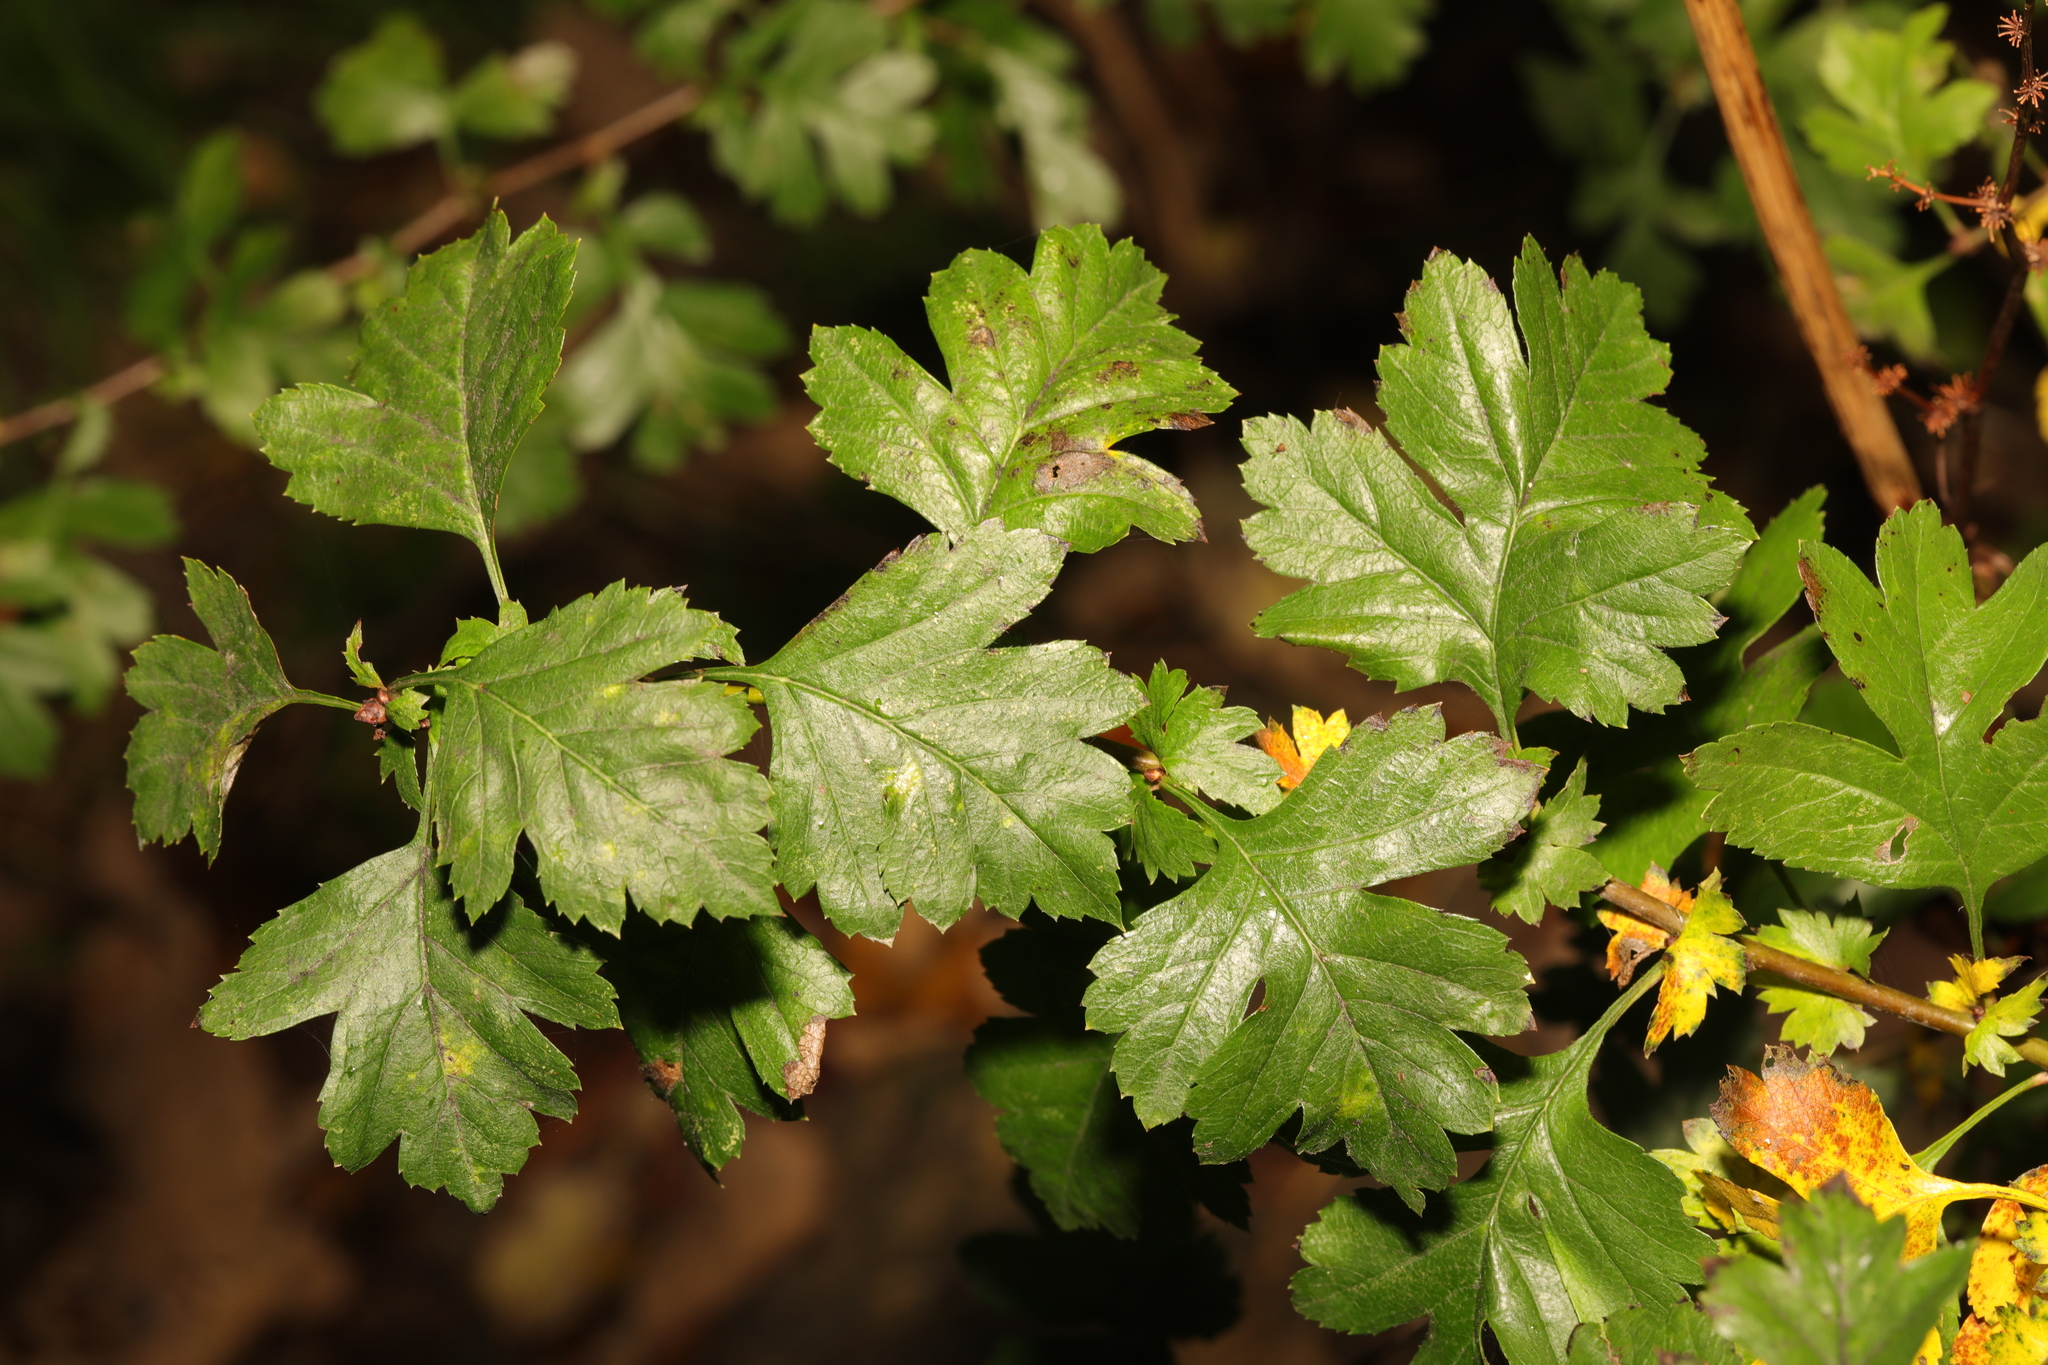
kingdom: Plantae
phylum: Tracheophyta
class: Magnoliopsida
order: Rosales
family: Rosaceae
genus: Crataegus
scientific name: Crataegus monogyna
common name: Hawthorn
